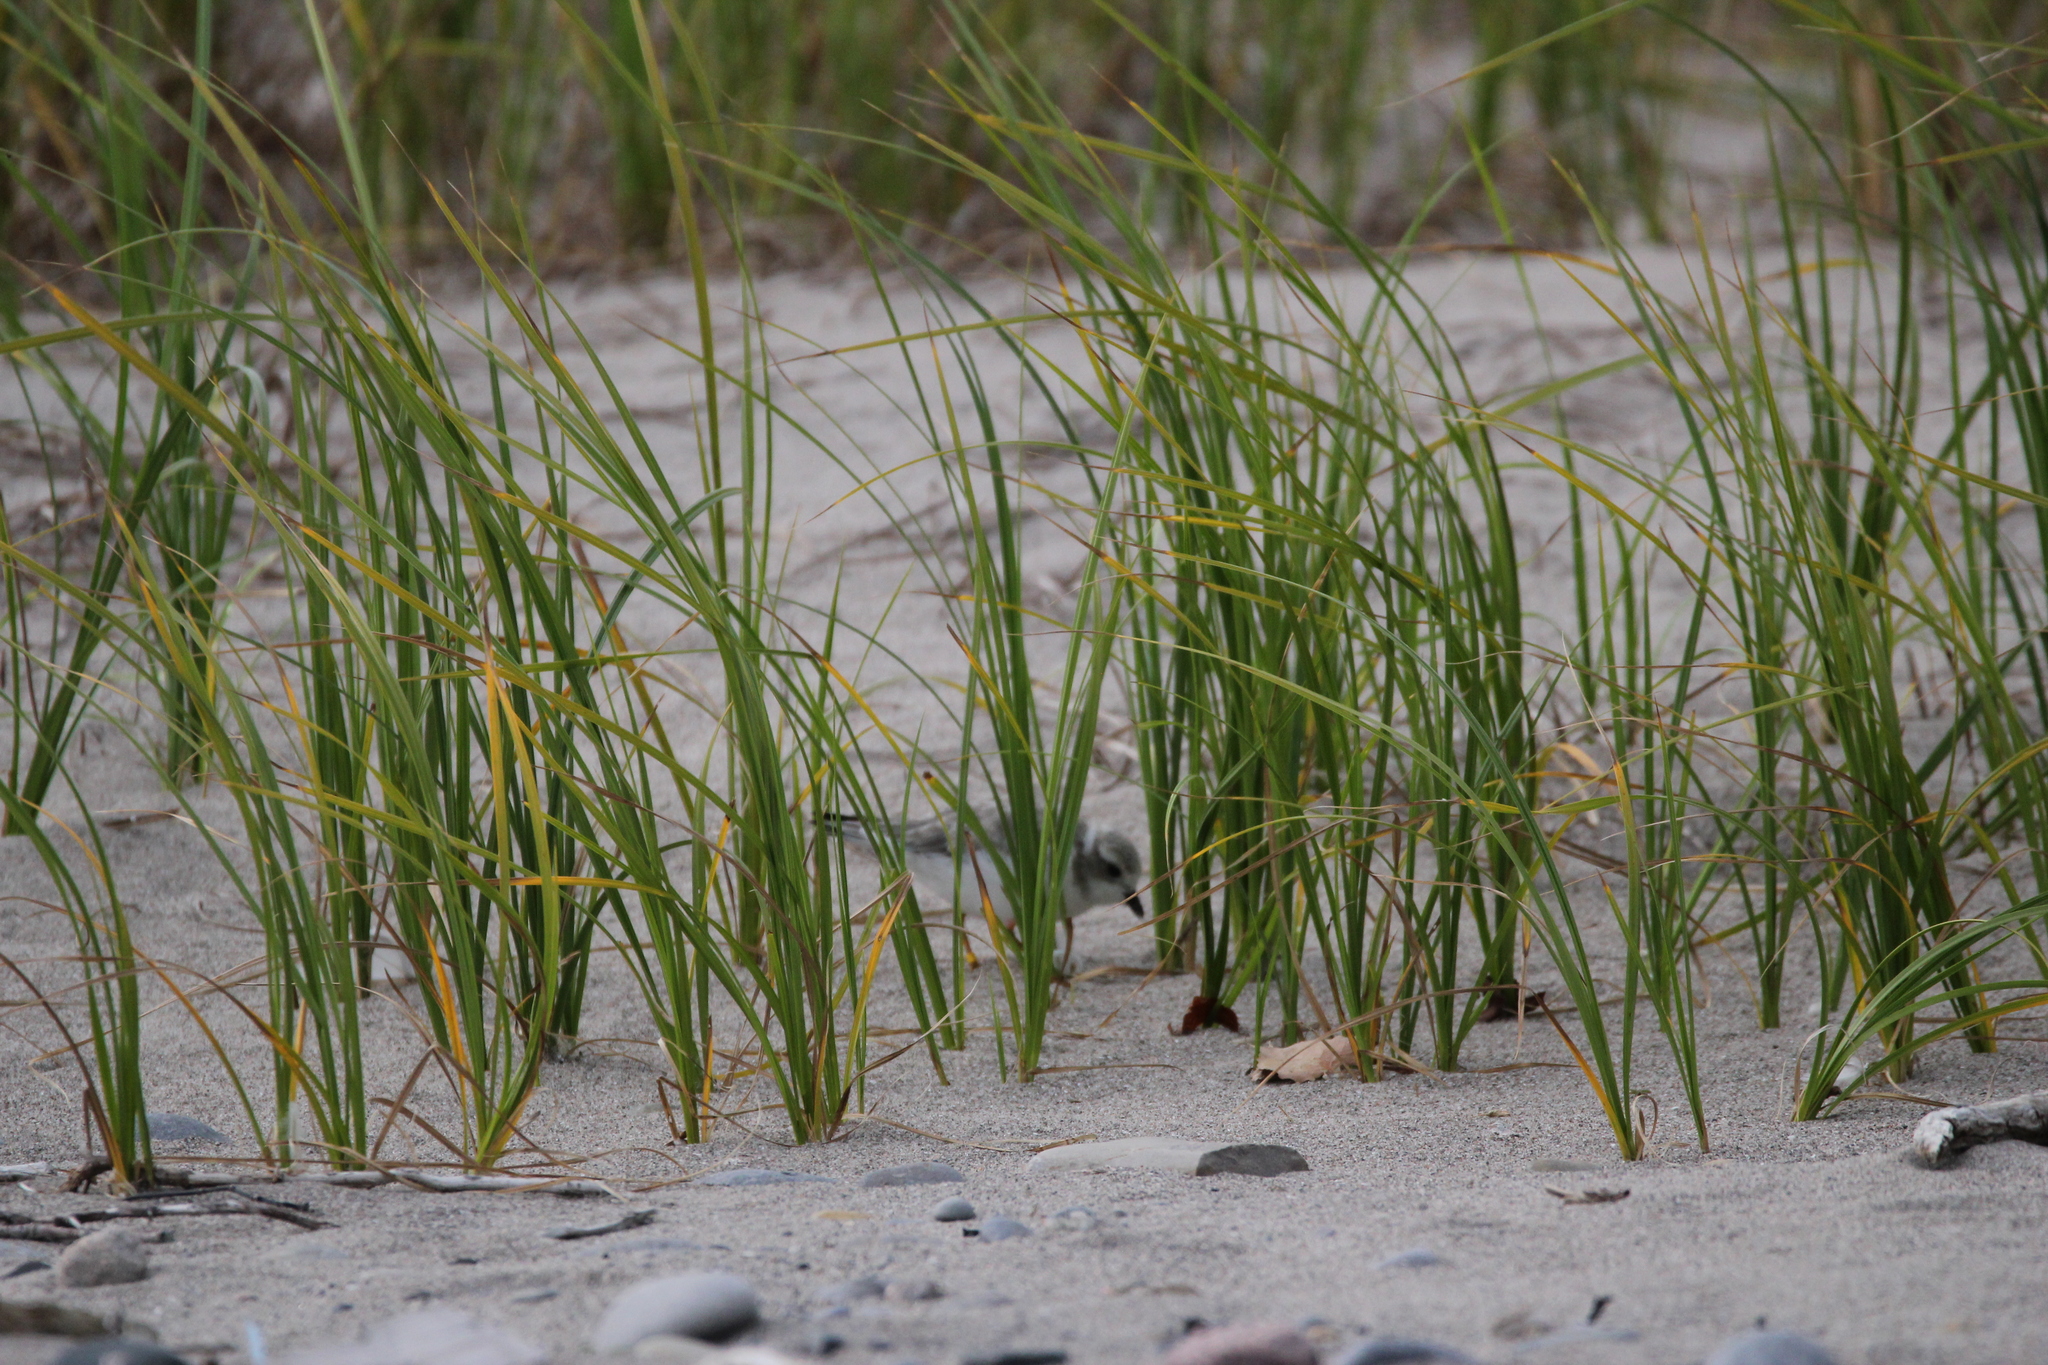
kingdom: Plantae
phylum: Tracheophyta
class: Liliopsida
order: Poales
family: Poaceae
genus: Calamagrostis
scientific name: Calamagrostis breviligulata
